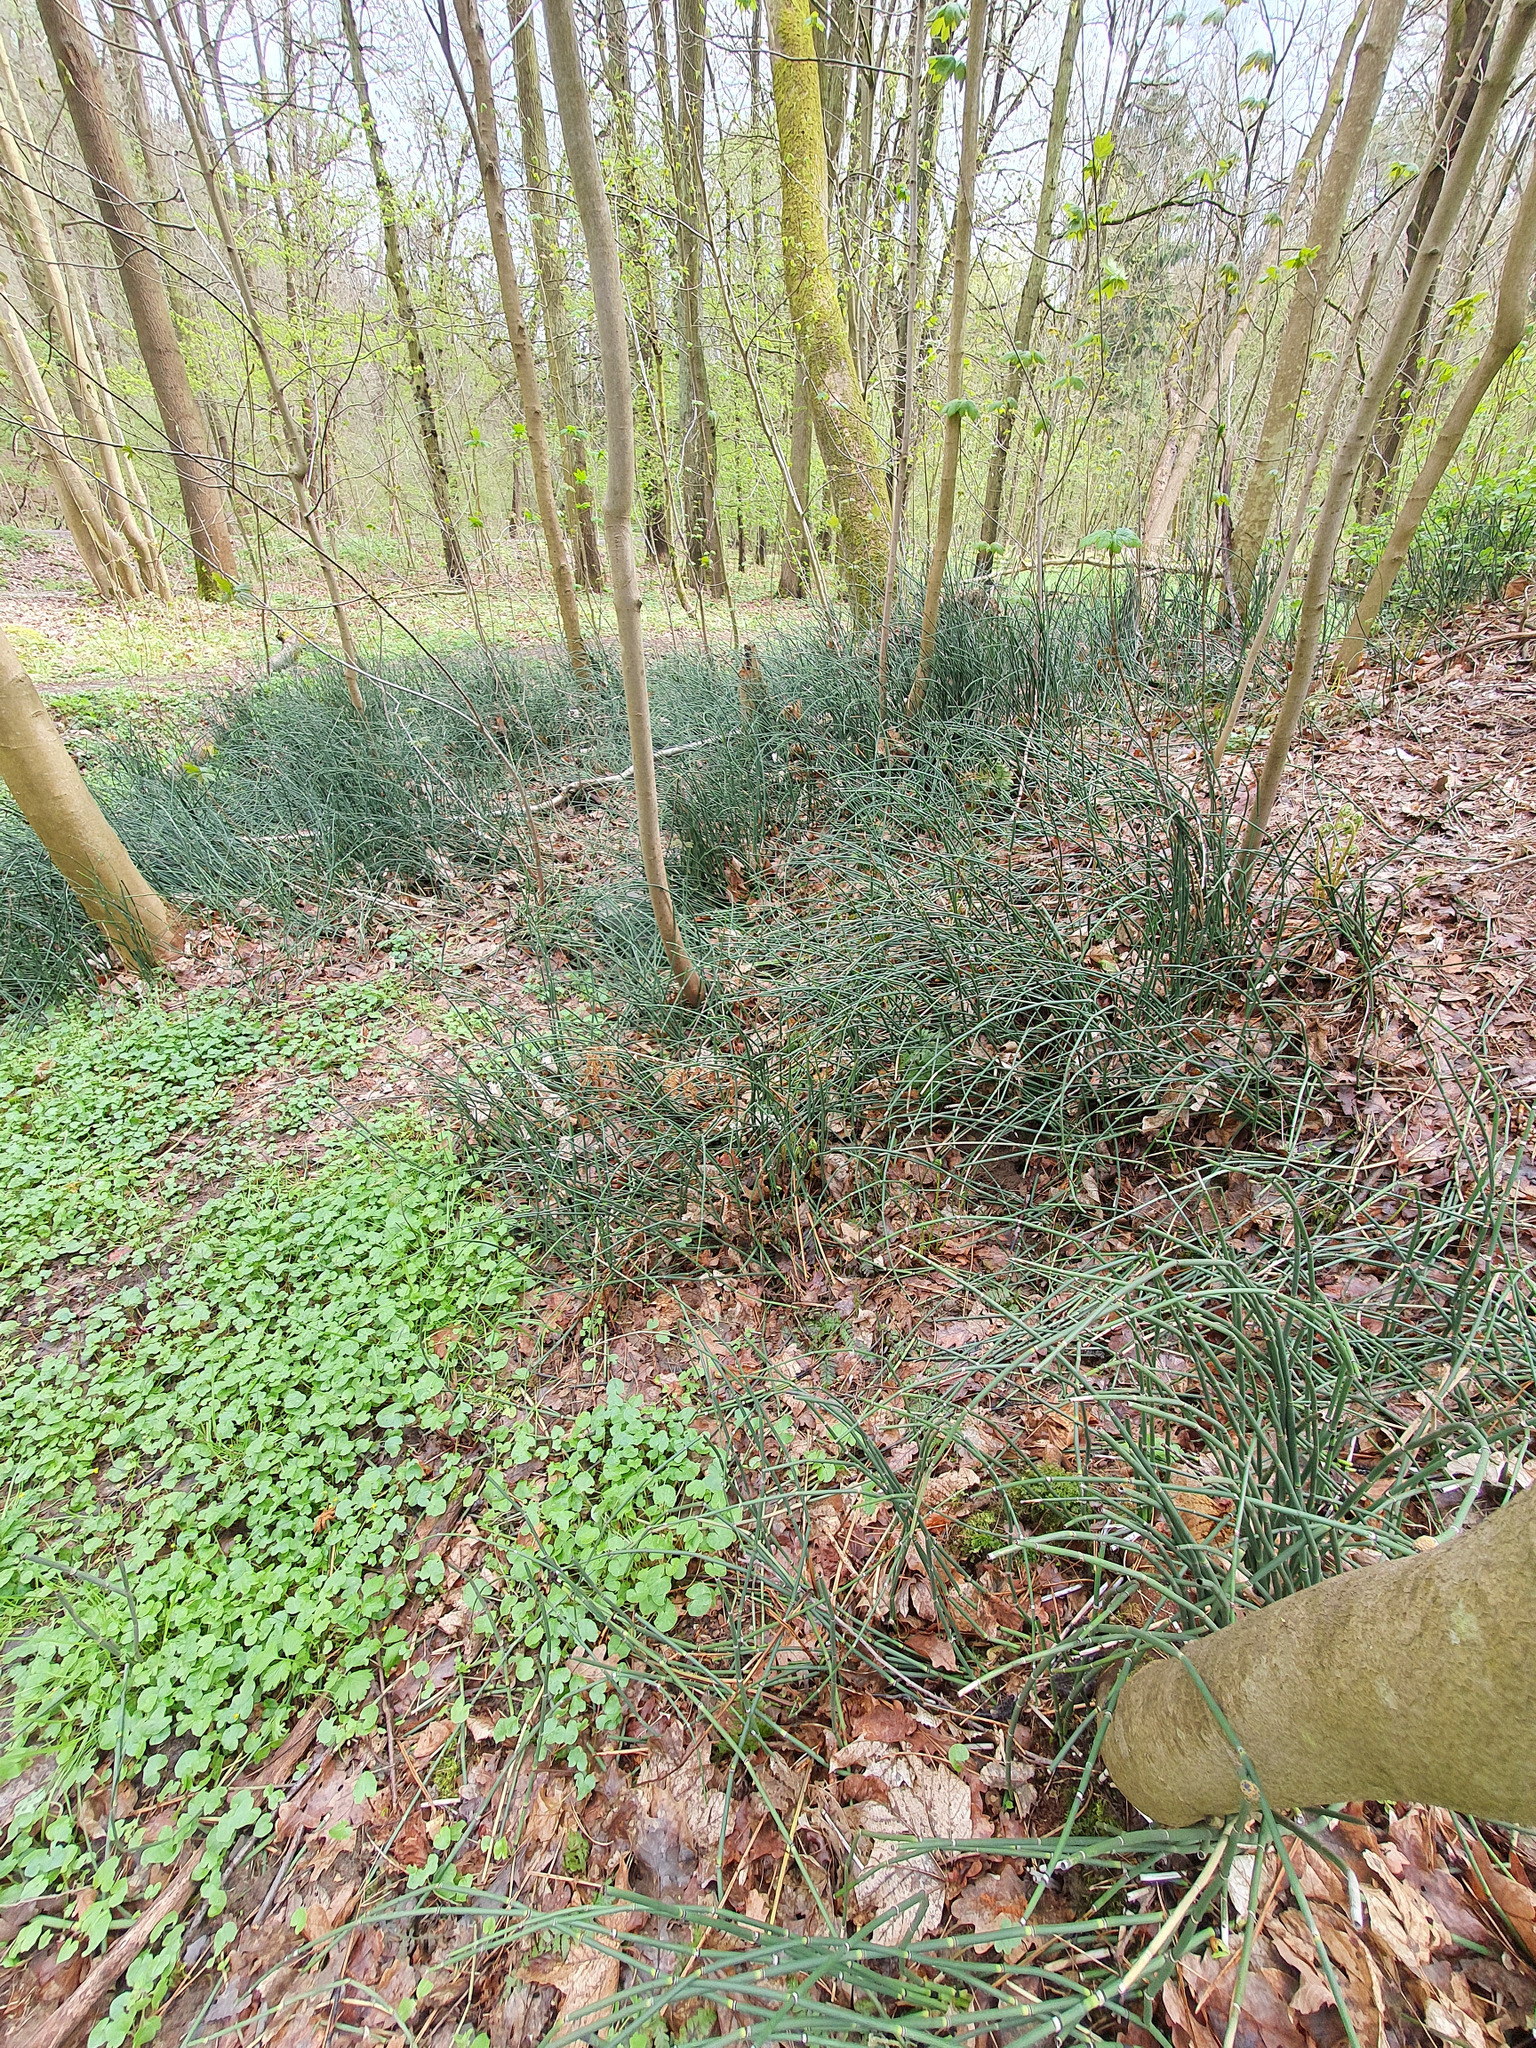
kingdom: Plantae
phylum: Tracheophyta
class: Polypodiopsida
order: Equisetales
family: Equisetaceae
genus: Equisetum
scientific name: Equisetum hyemale
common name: Rough horsetail
